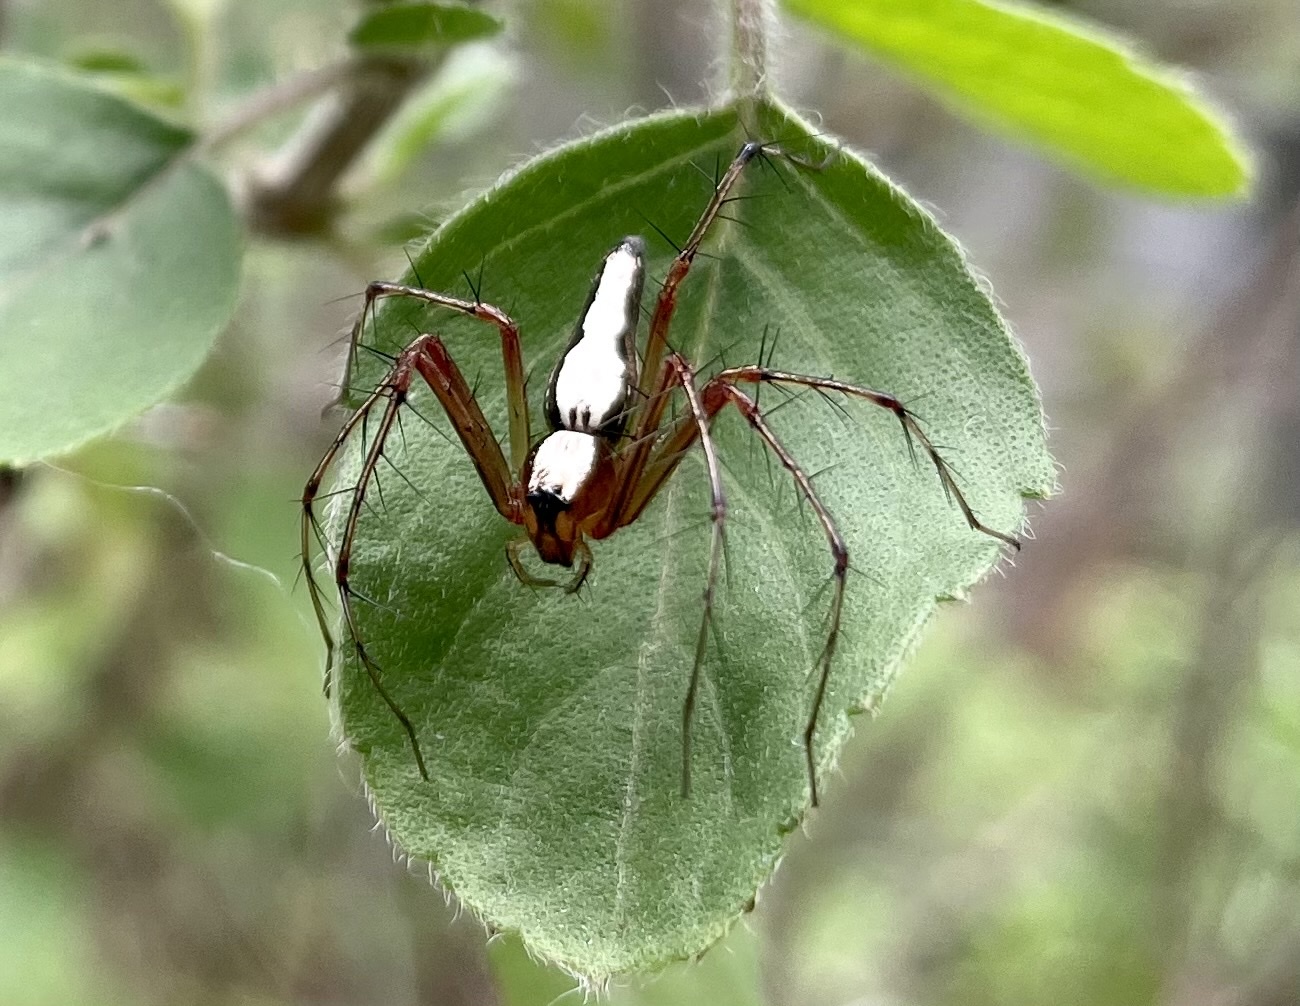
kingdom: Animalia
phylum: Arthropoda
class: Arachnida
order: Araneae
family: Oxyopidae
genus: Oxyopes
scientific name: Oxyopes shweta
